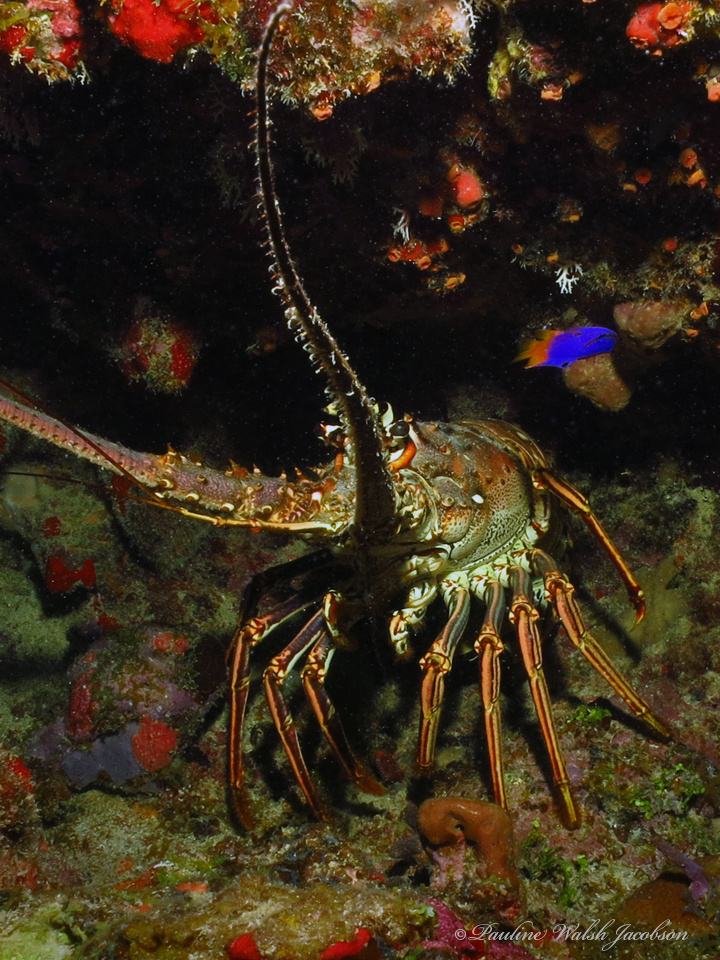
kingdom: Animalia
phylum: Arthropoda
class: Malacostraca
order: Decapoda
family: Palinuridae
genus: Panulirus
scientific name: Panulirus argus
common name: Caribbean spiny lobster
